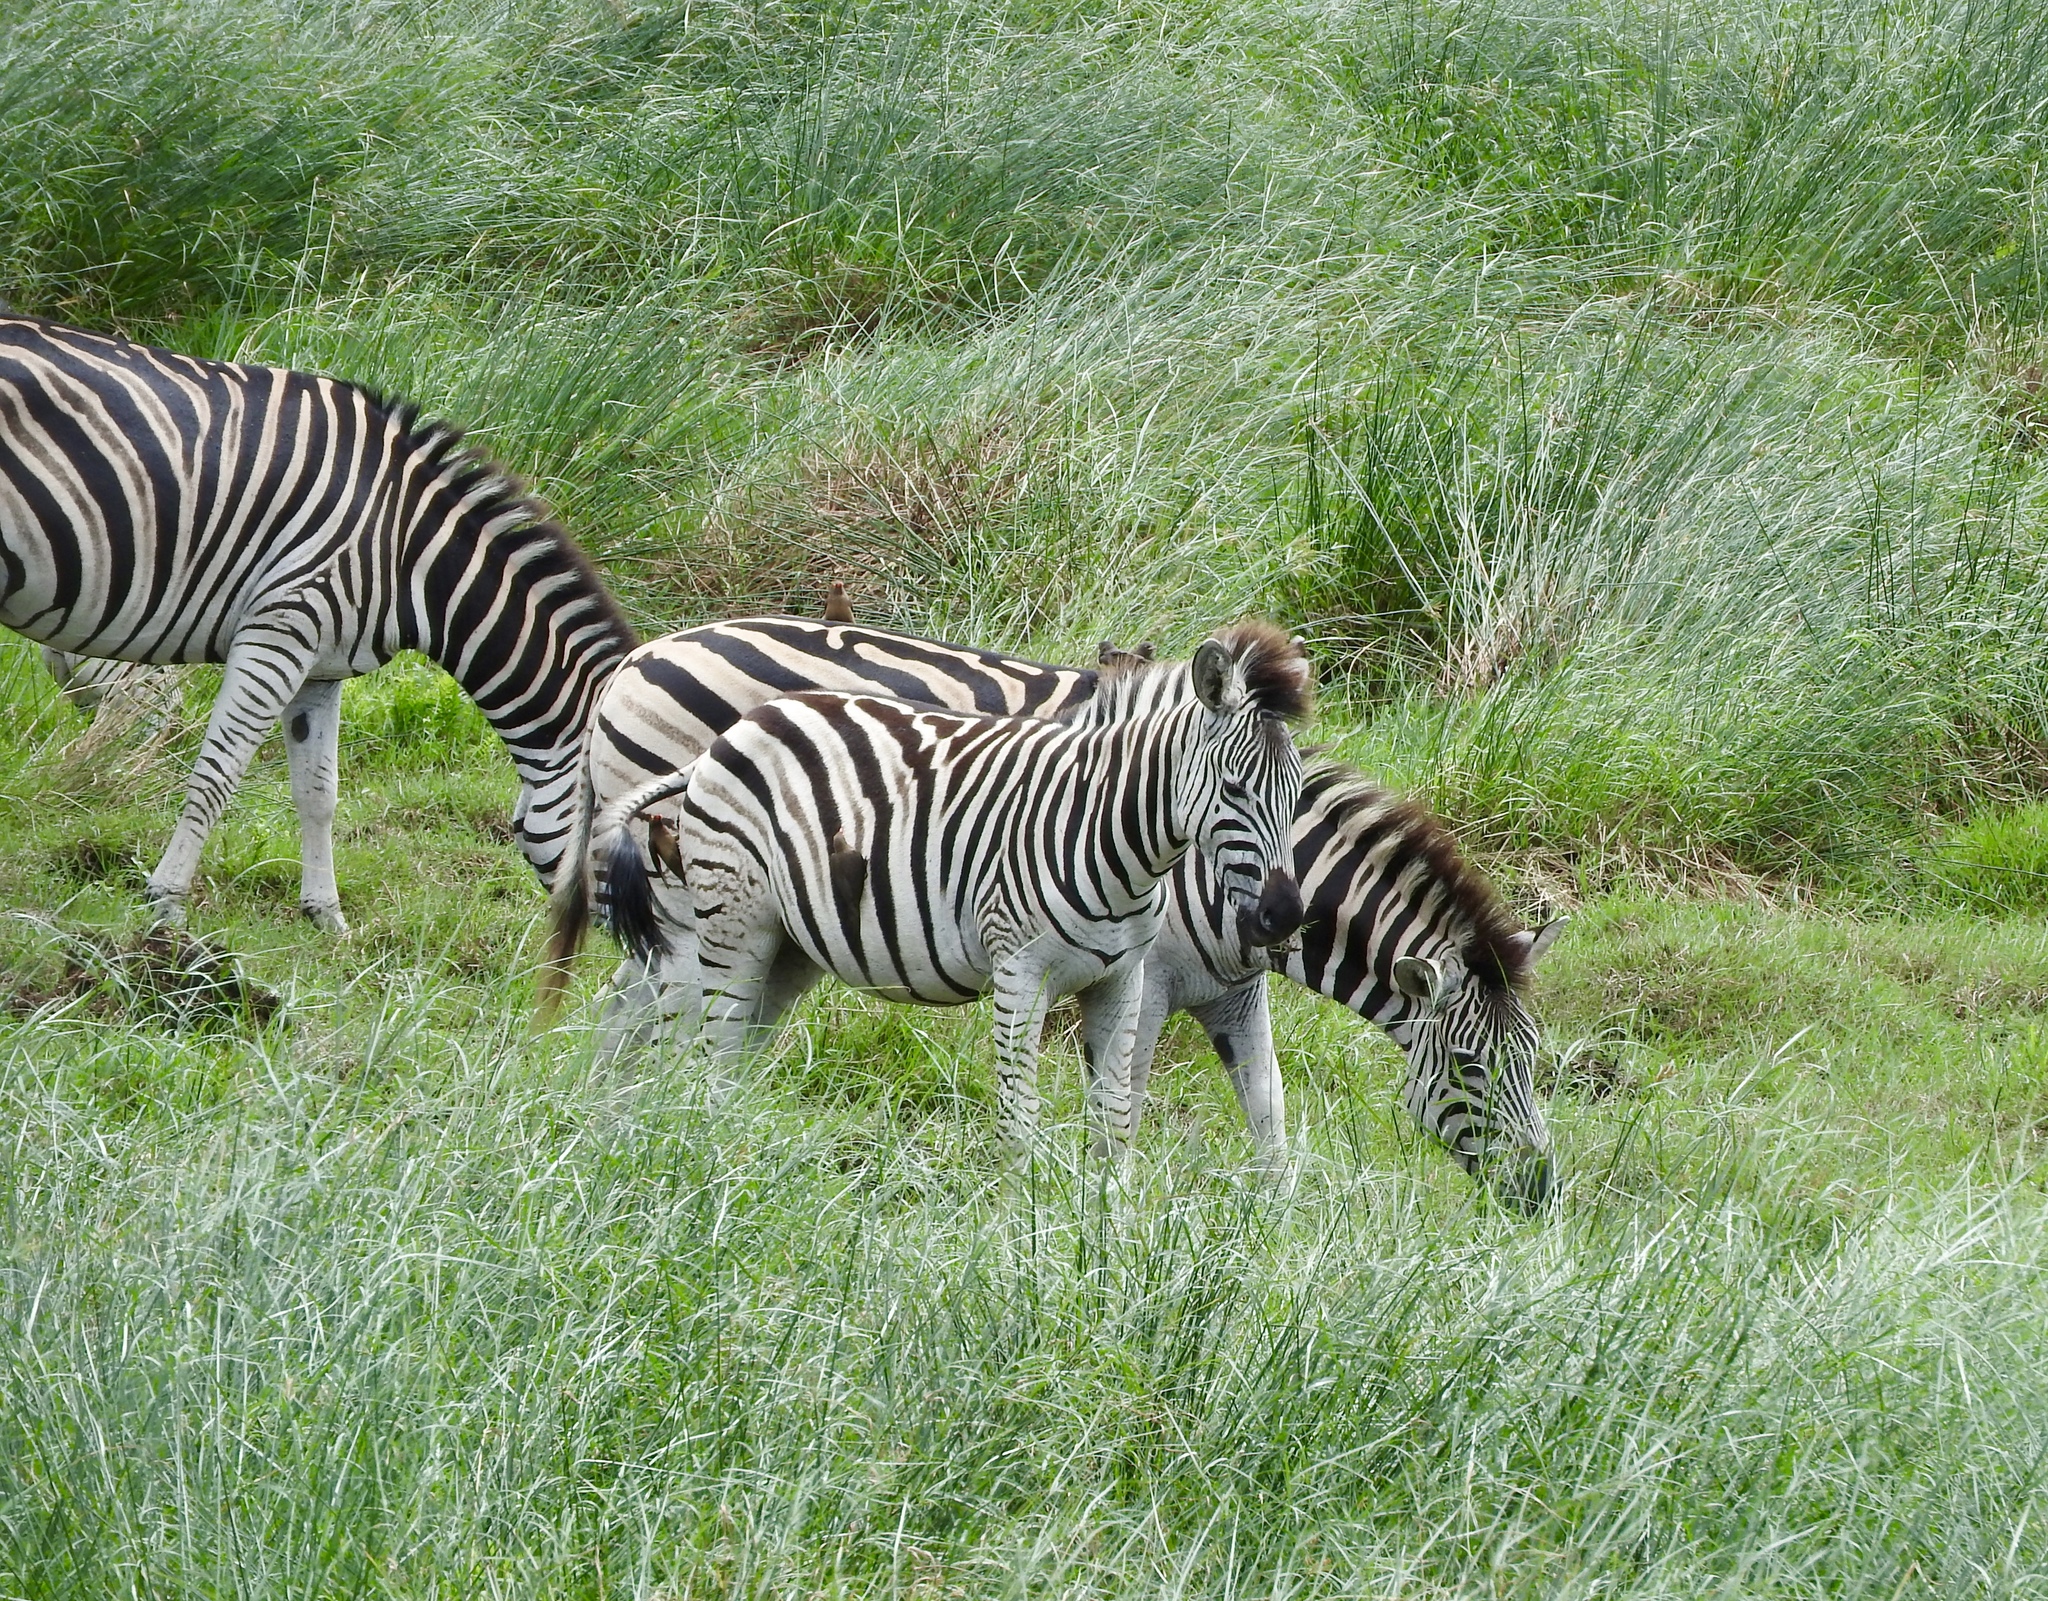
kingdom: Animalia
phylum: Chordata
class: Mammalia
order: Perissodactyla
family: Equidae
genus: Equus
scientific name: Equus quagga
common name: Plains zebra
